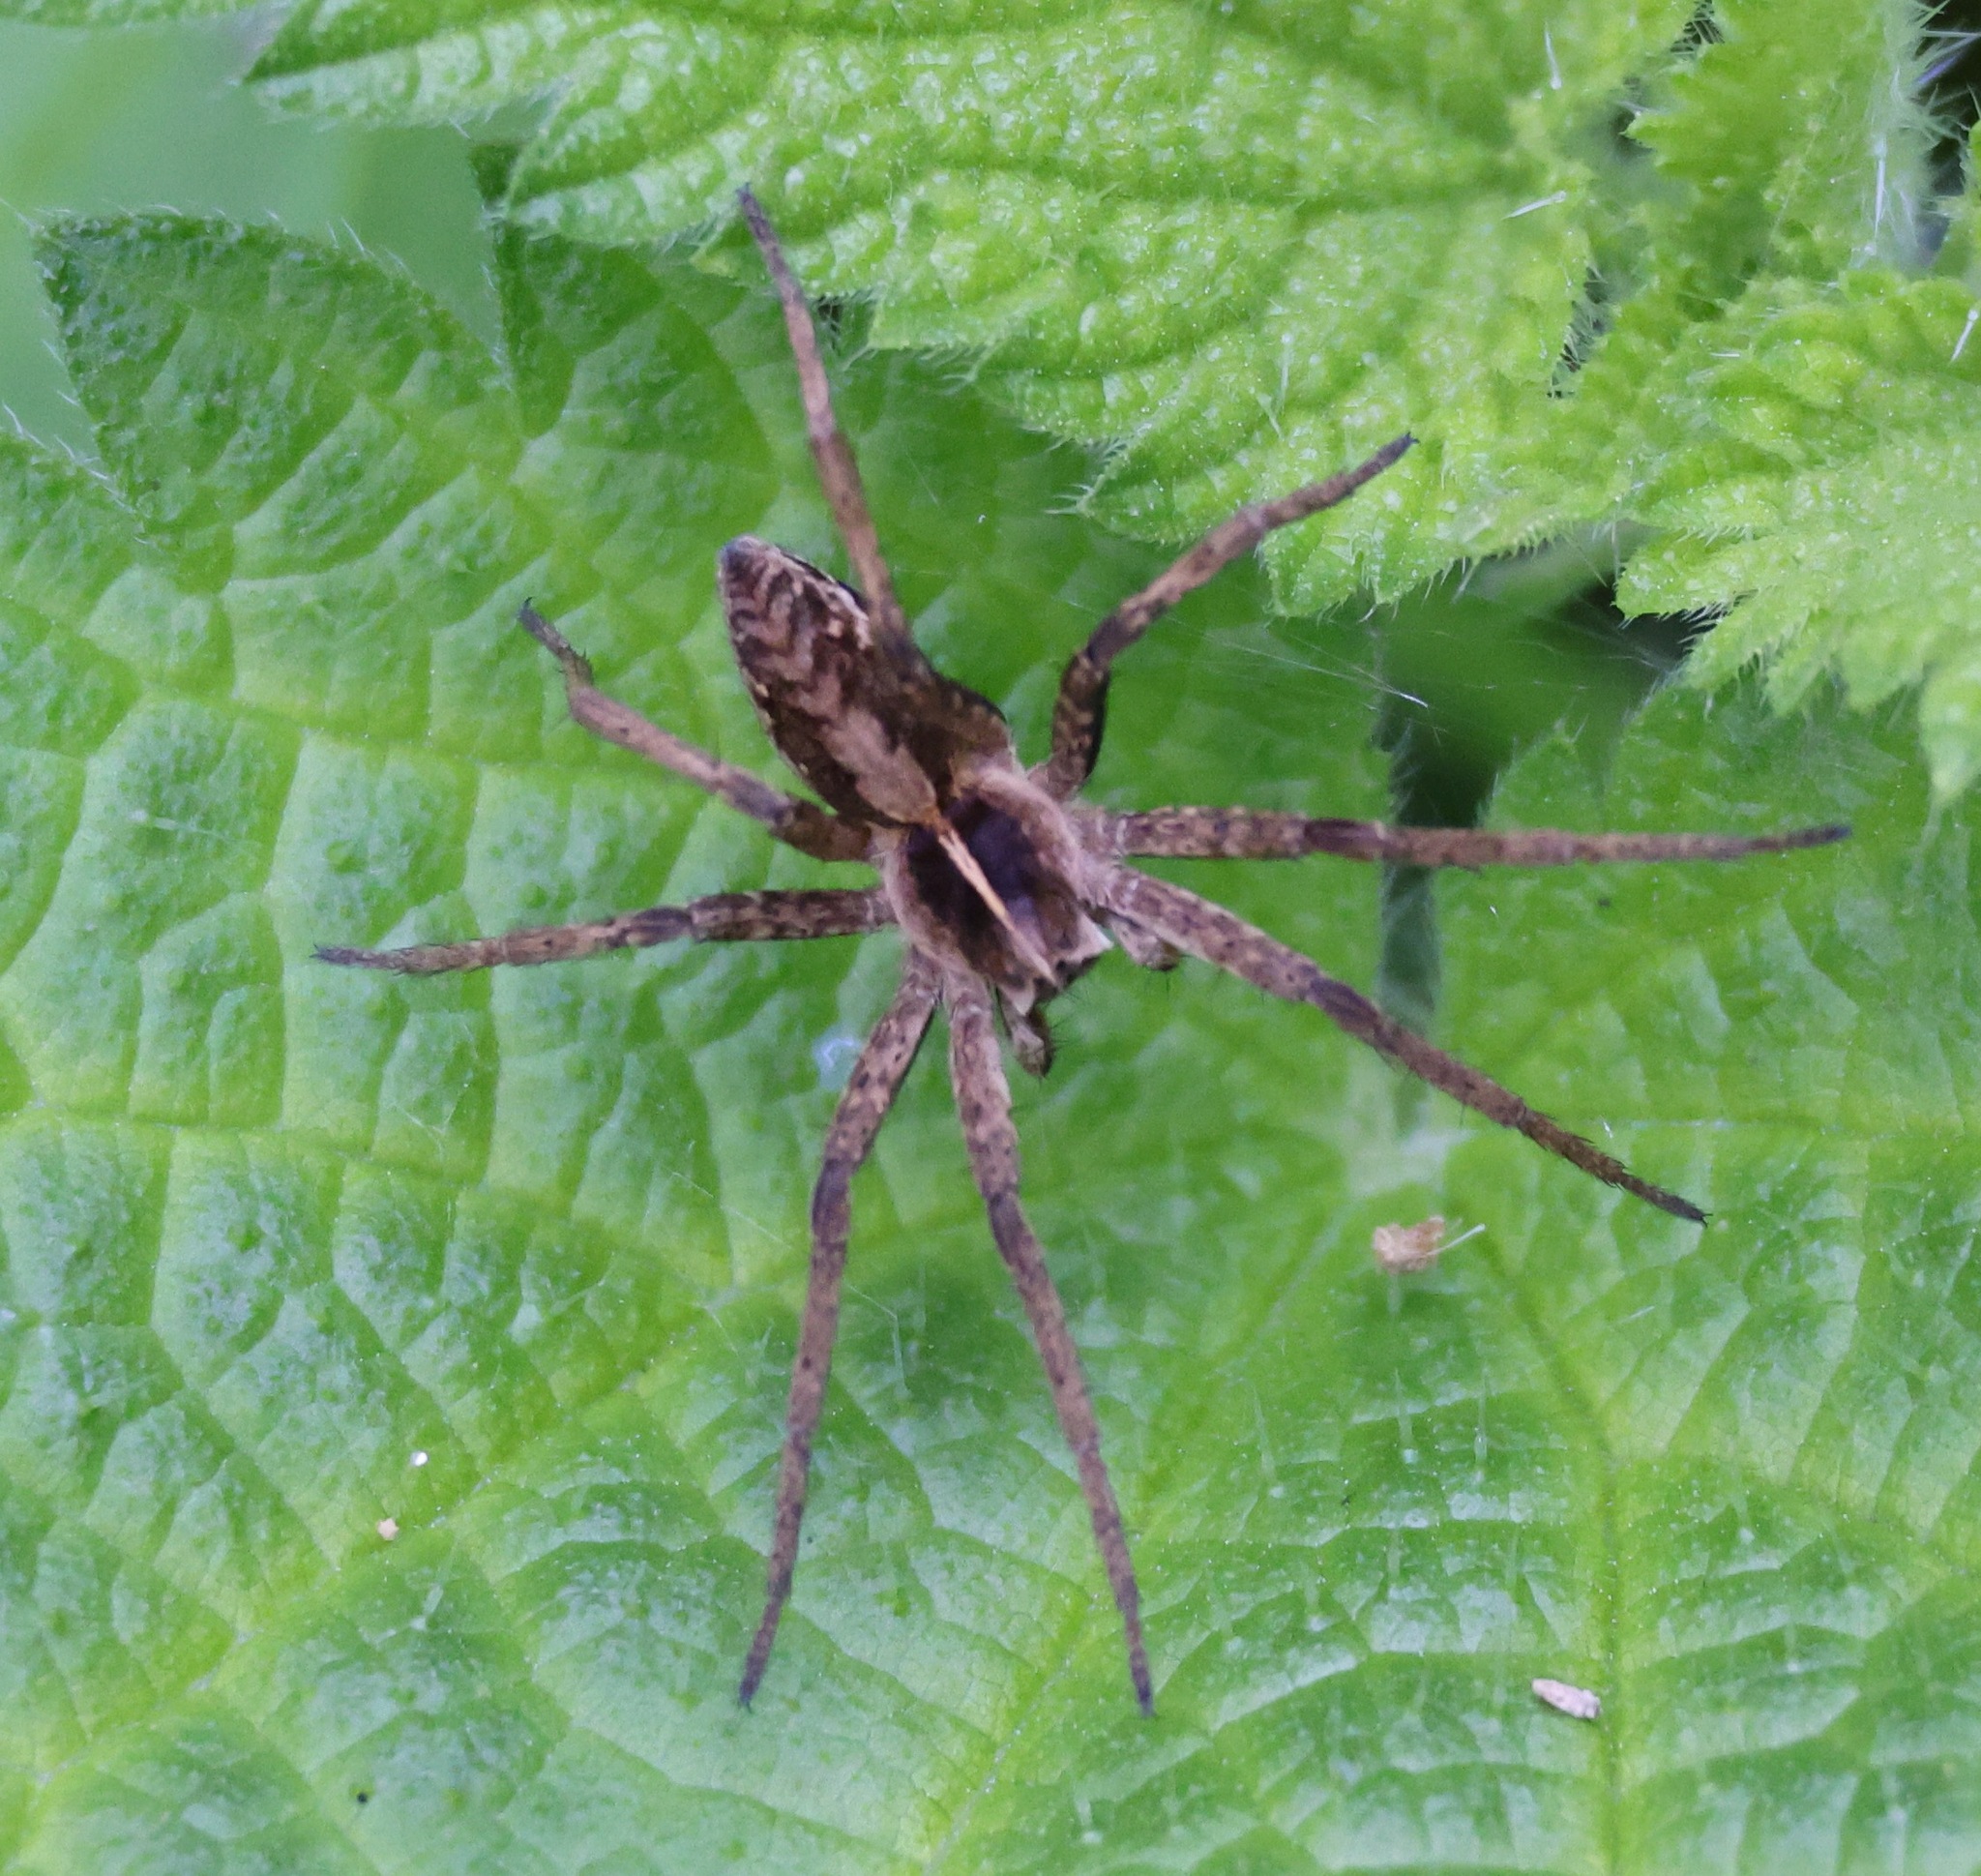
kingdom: Animalia
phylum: Arthropoda
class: Arachnida
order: Araneae
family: Pisauridae
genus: Pisaura
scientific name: Pisaura mirabilis
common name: Tent spider
